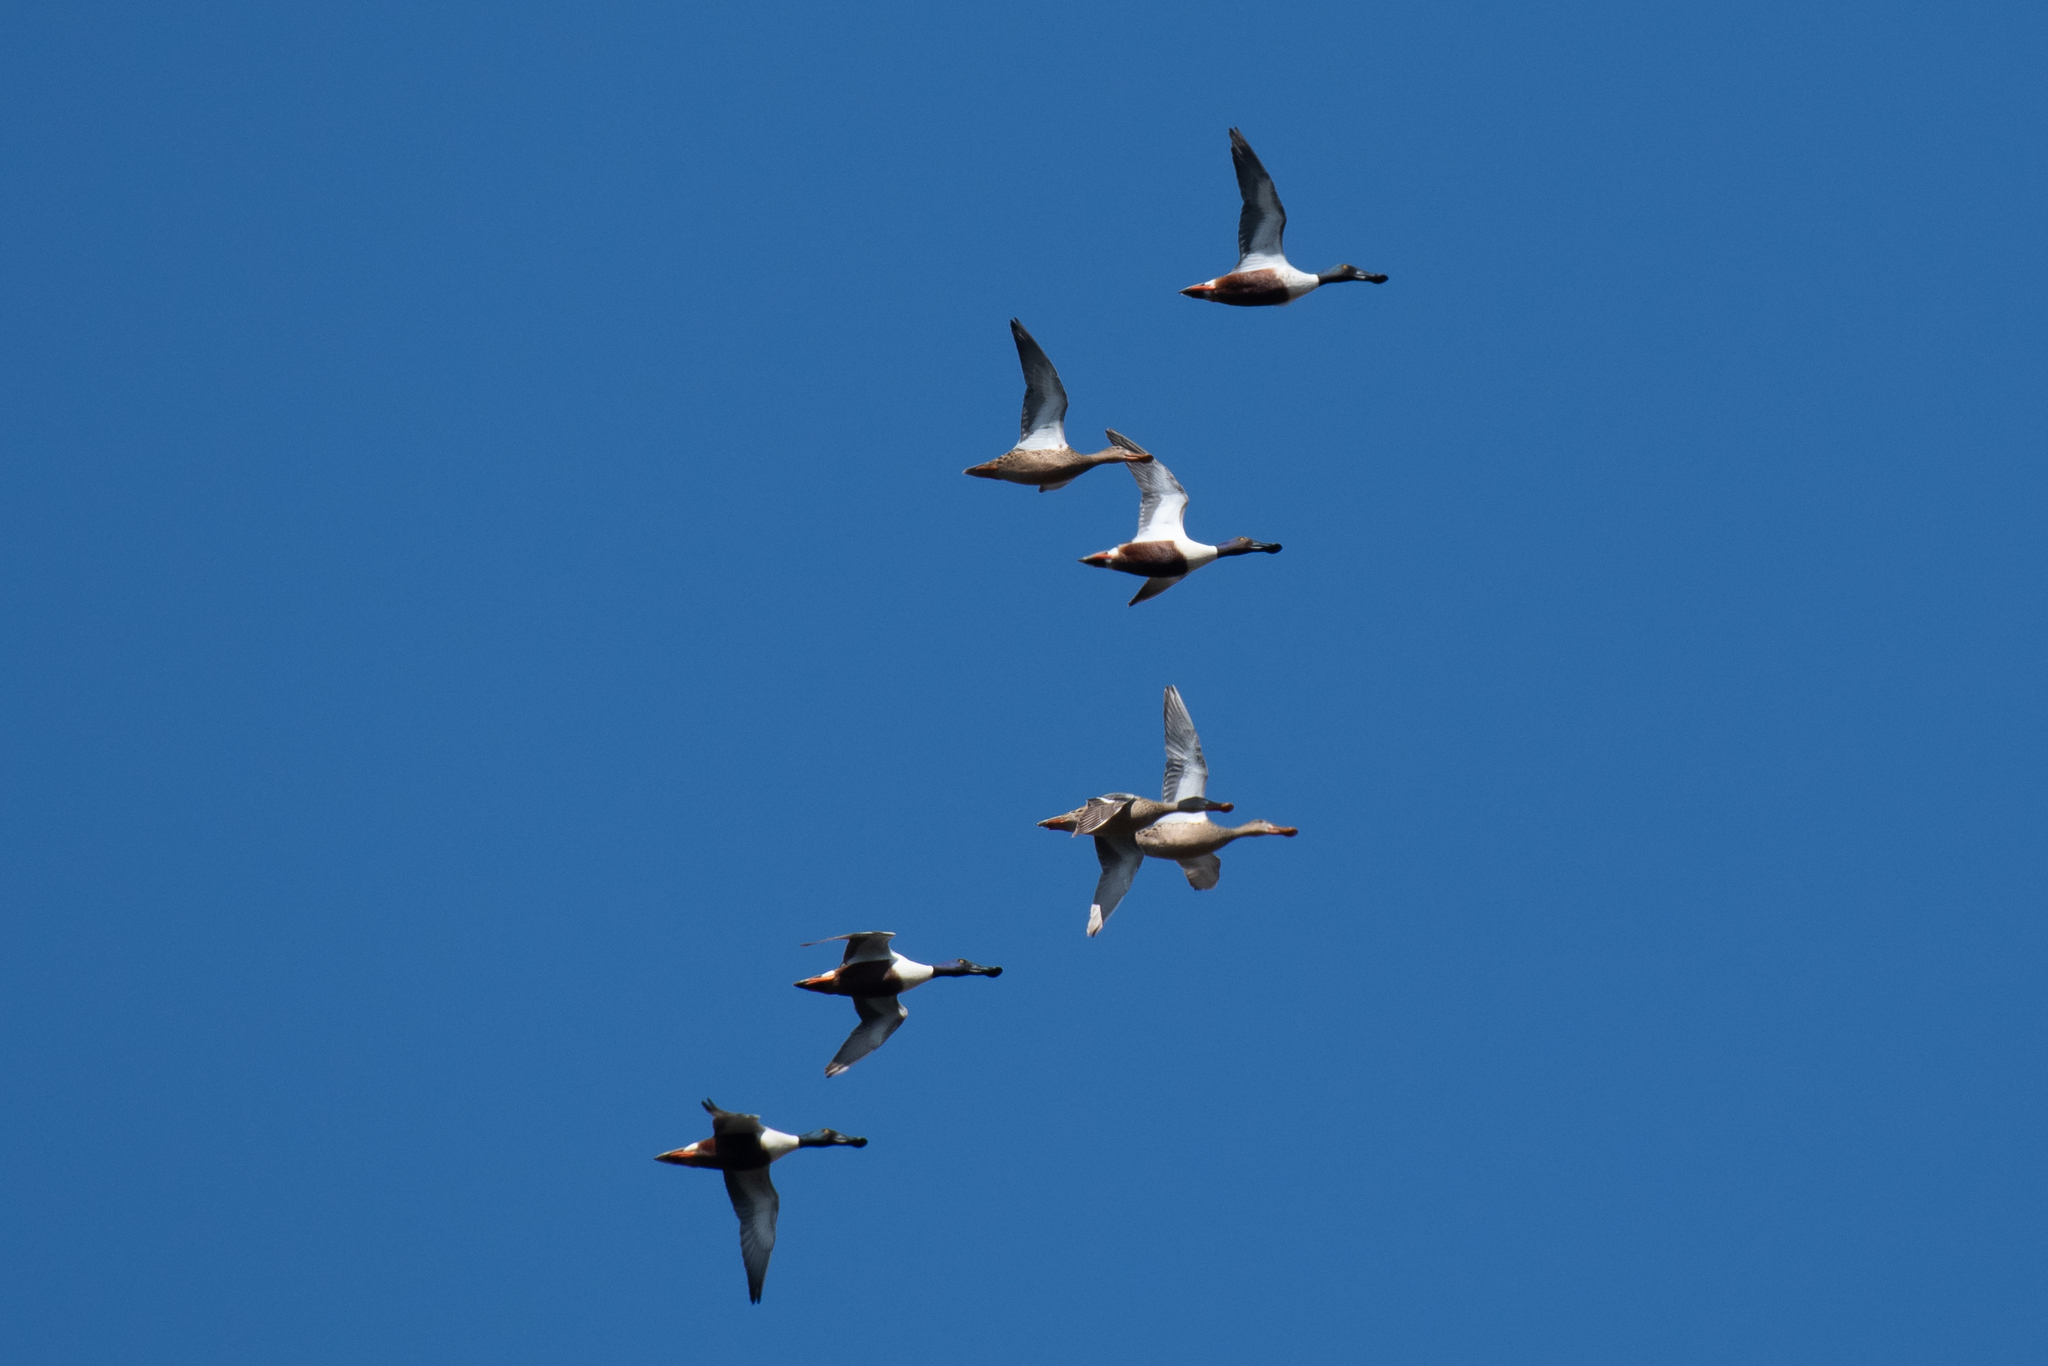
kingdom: Animalia
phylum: Chordata
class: Aves
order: Anseriformes
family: Anatidae
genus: Spatula
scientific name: Spatula clypeata
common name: Northern shoveler
